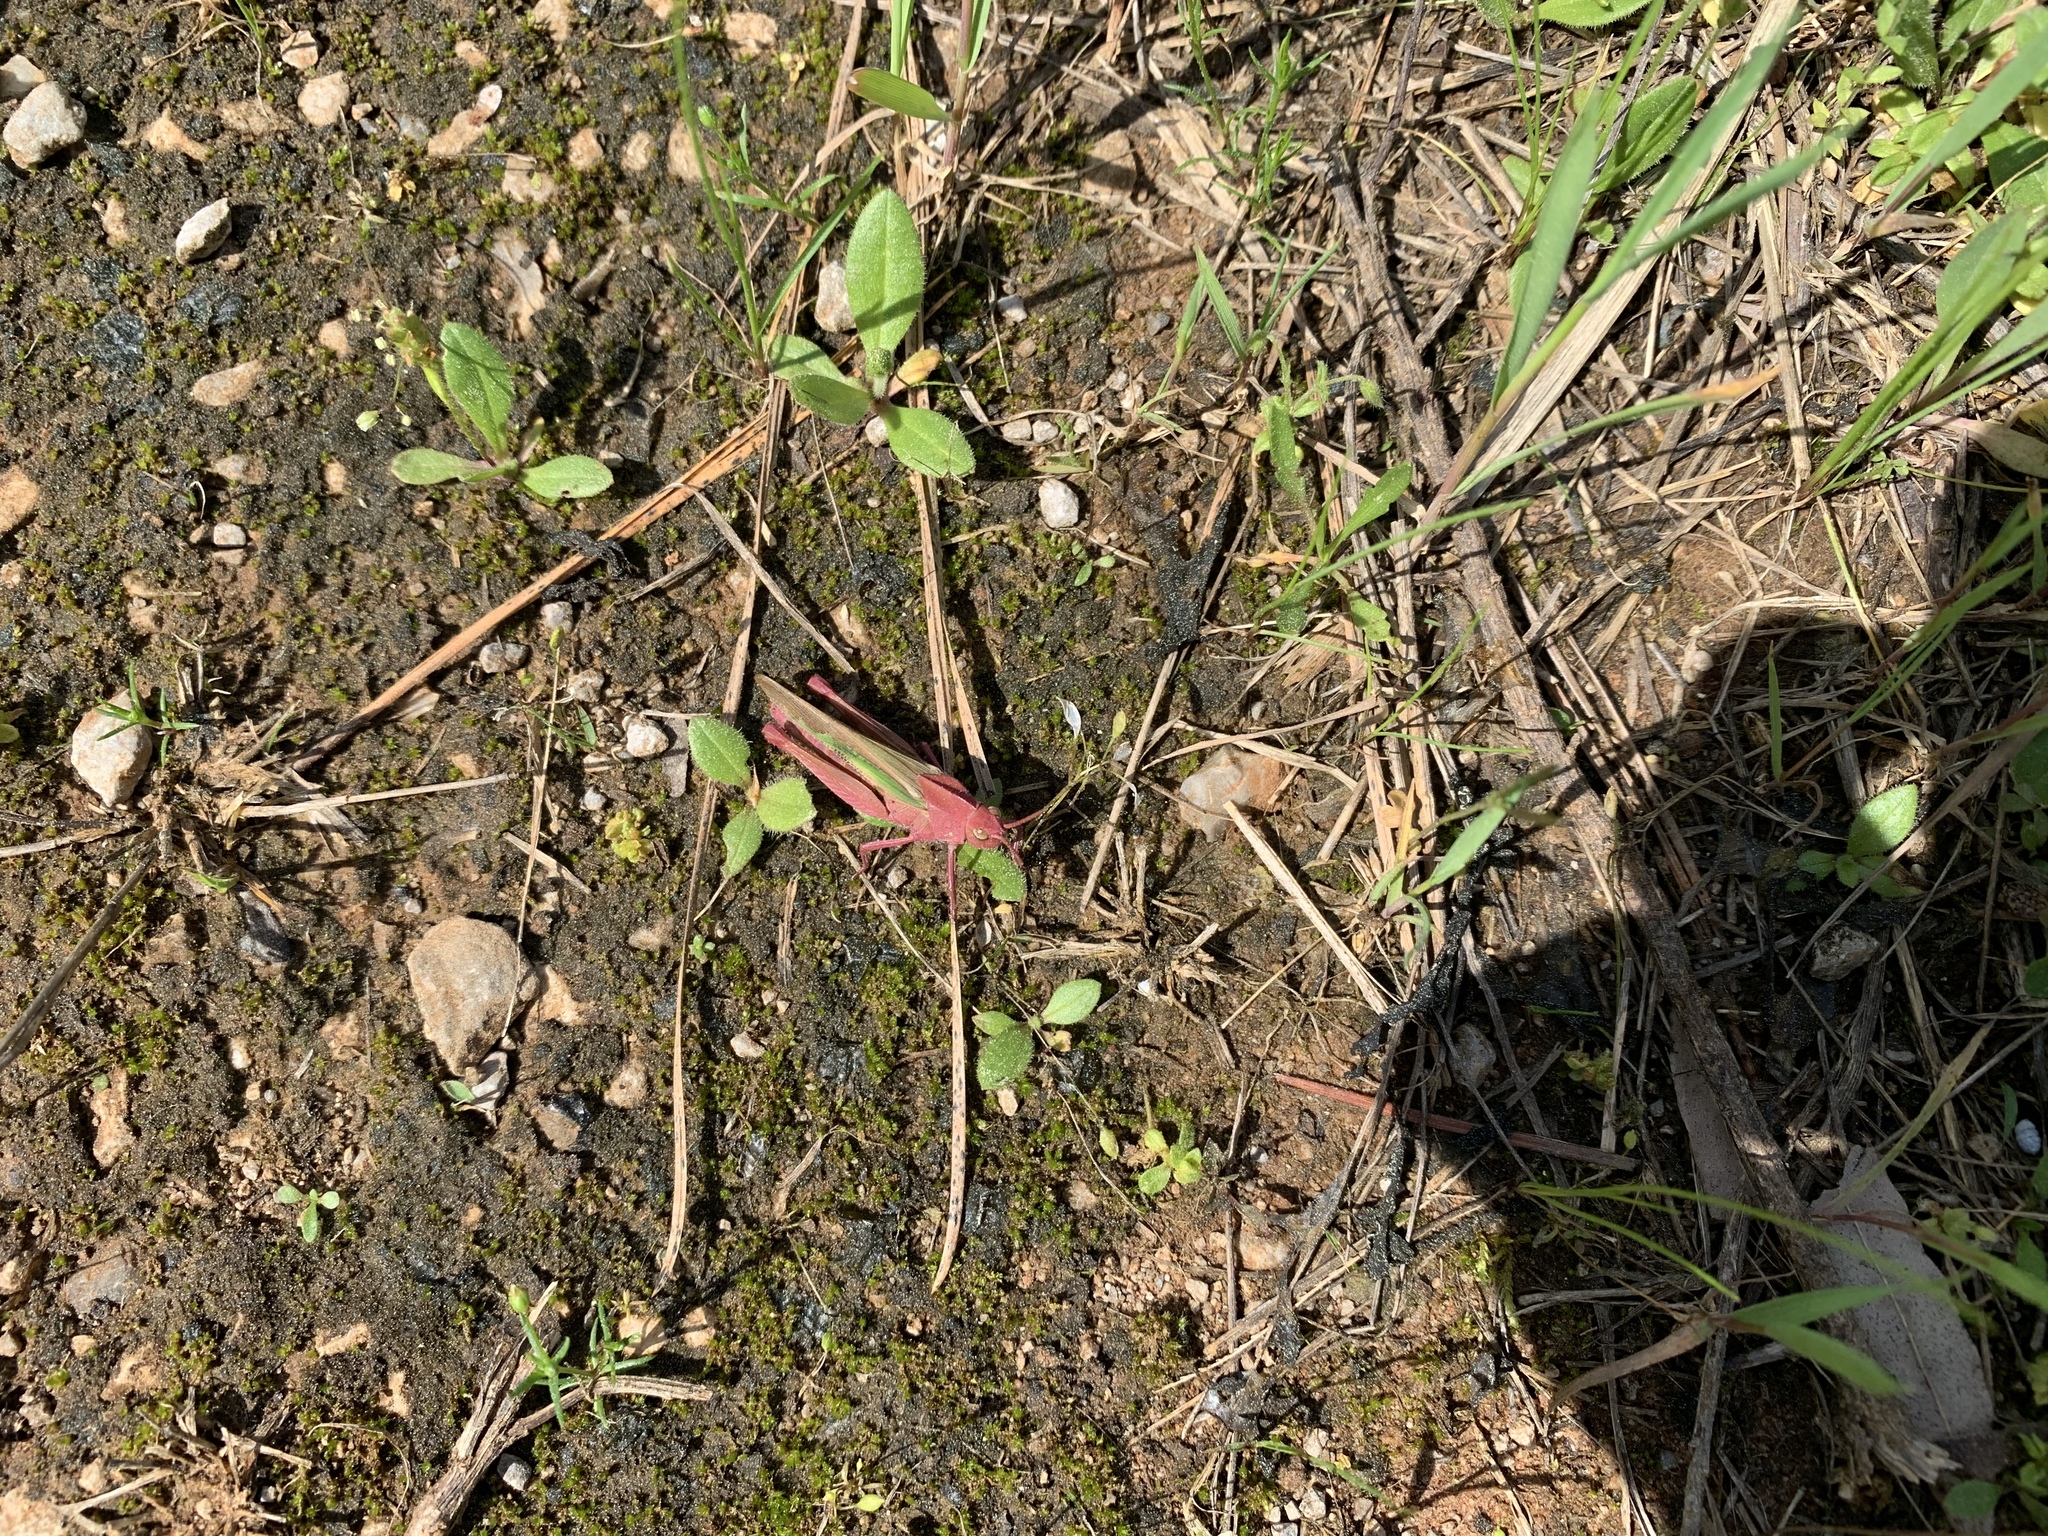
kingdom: Animalia
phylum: Arthropoda
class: Insecta
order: Orthoptera
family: Acrididae
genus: Chortophaga
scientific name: Chortophaga viridifasciata
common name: Green-striped grasshopper
